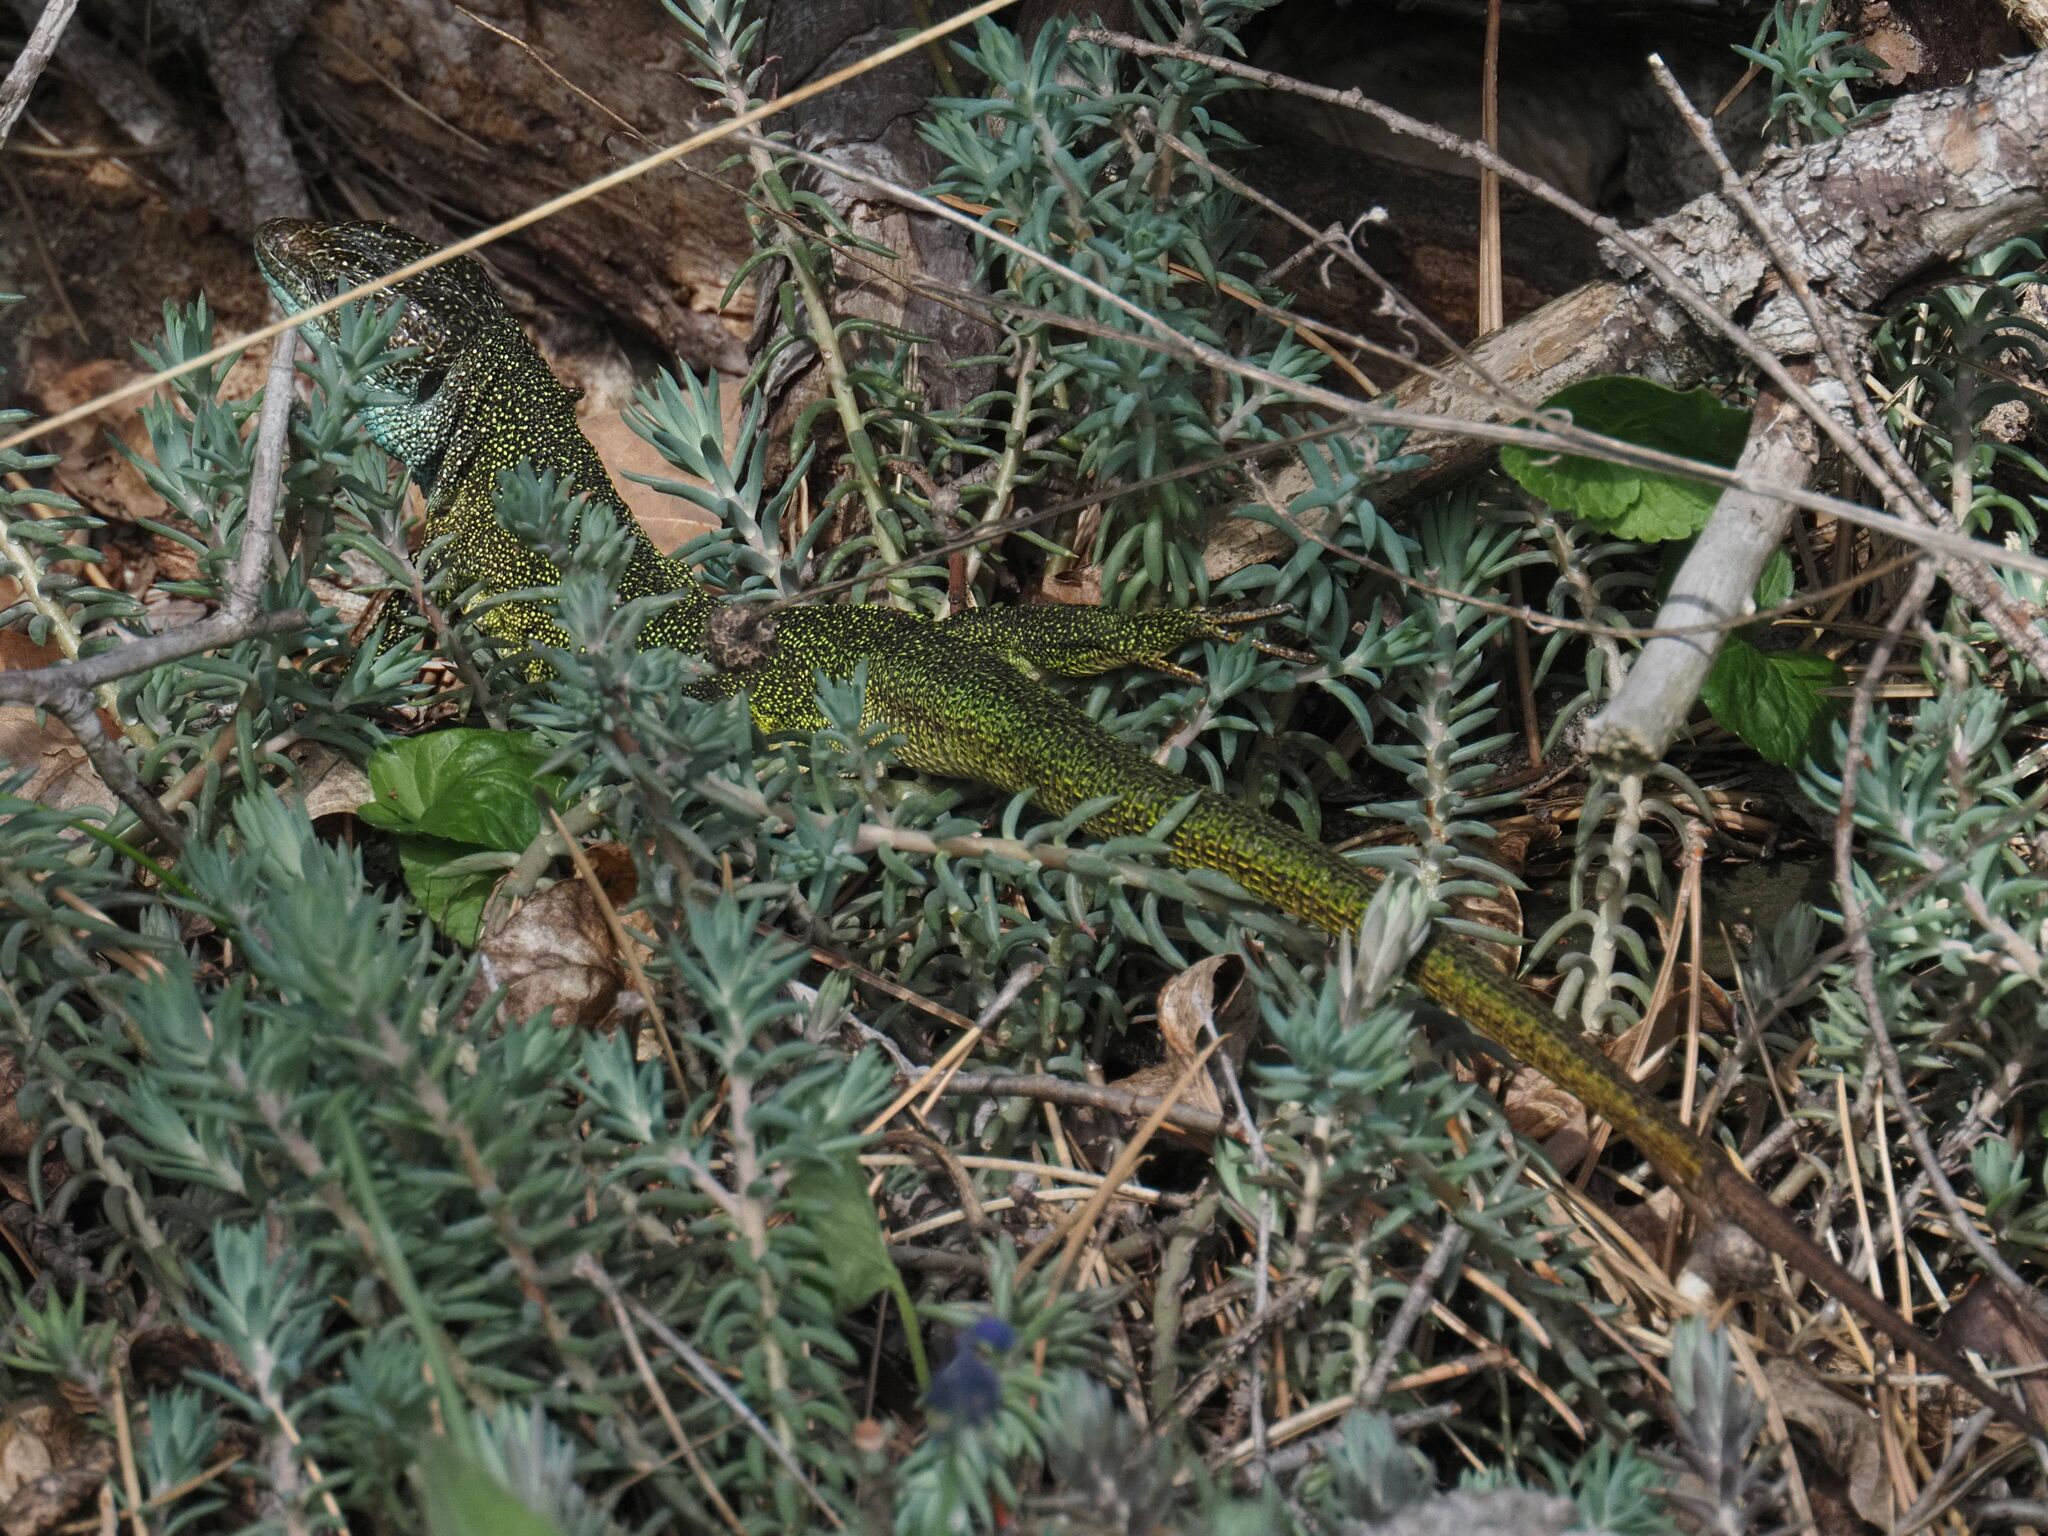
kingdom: Animalia
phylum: Chordata
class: Squamata
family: Lacertidae
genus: Lacerta
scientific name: Lacerta viridis
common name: European green lizard
